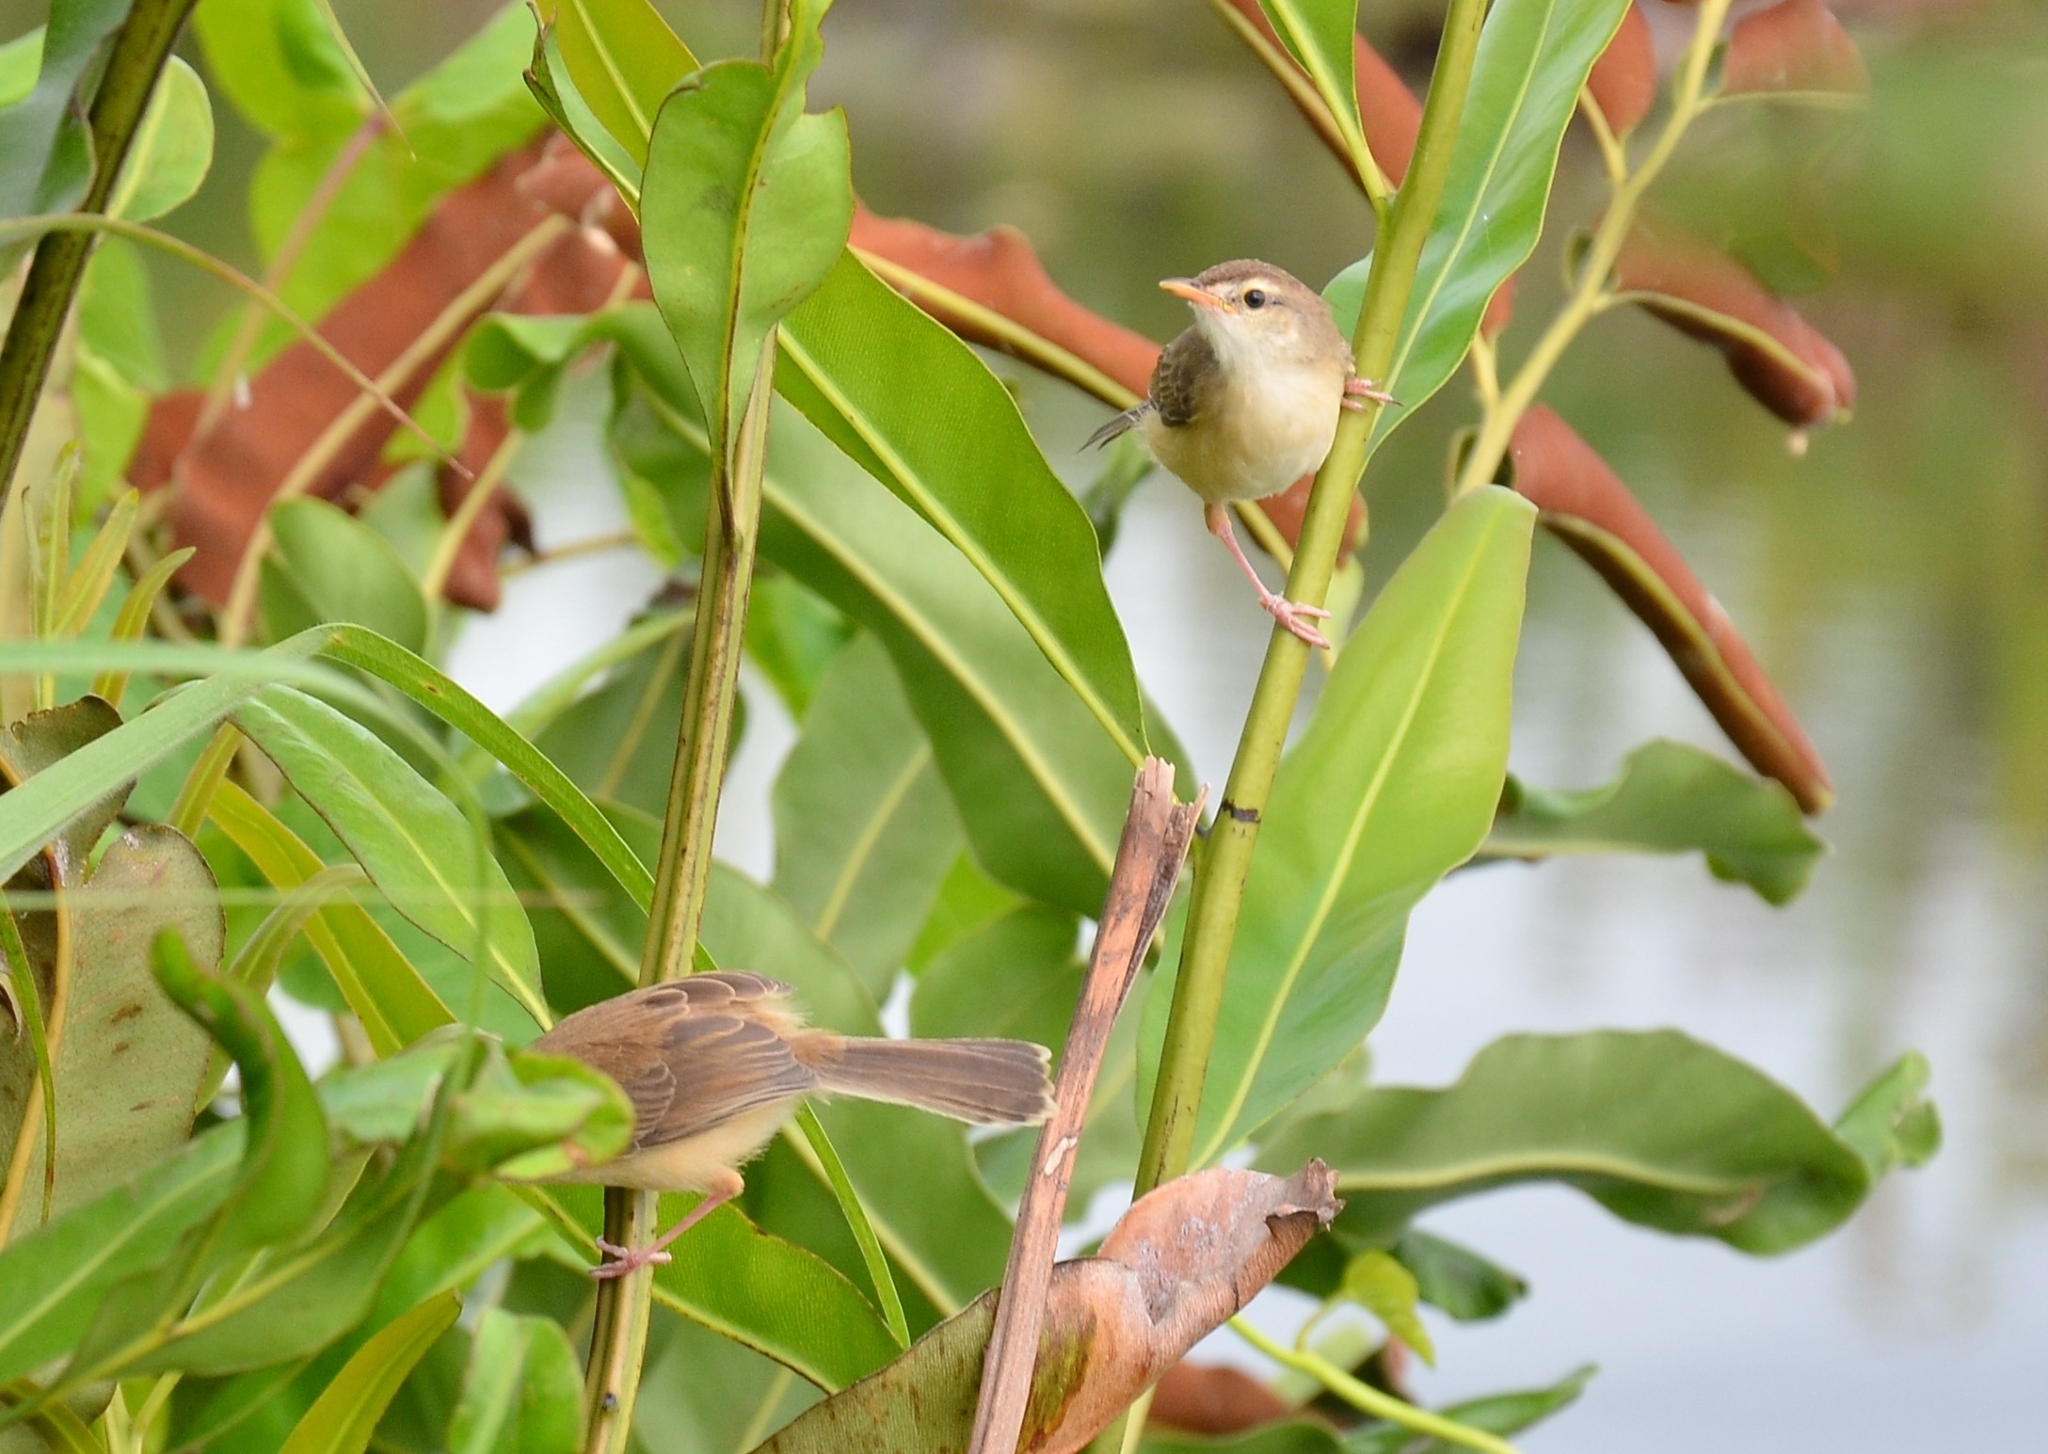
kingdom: Animalia
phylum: Chordata
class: Aves
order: Passeriformes
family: Cisticolidae
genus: Prinia
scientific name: Prinia inornata
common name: Plain prinia
